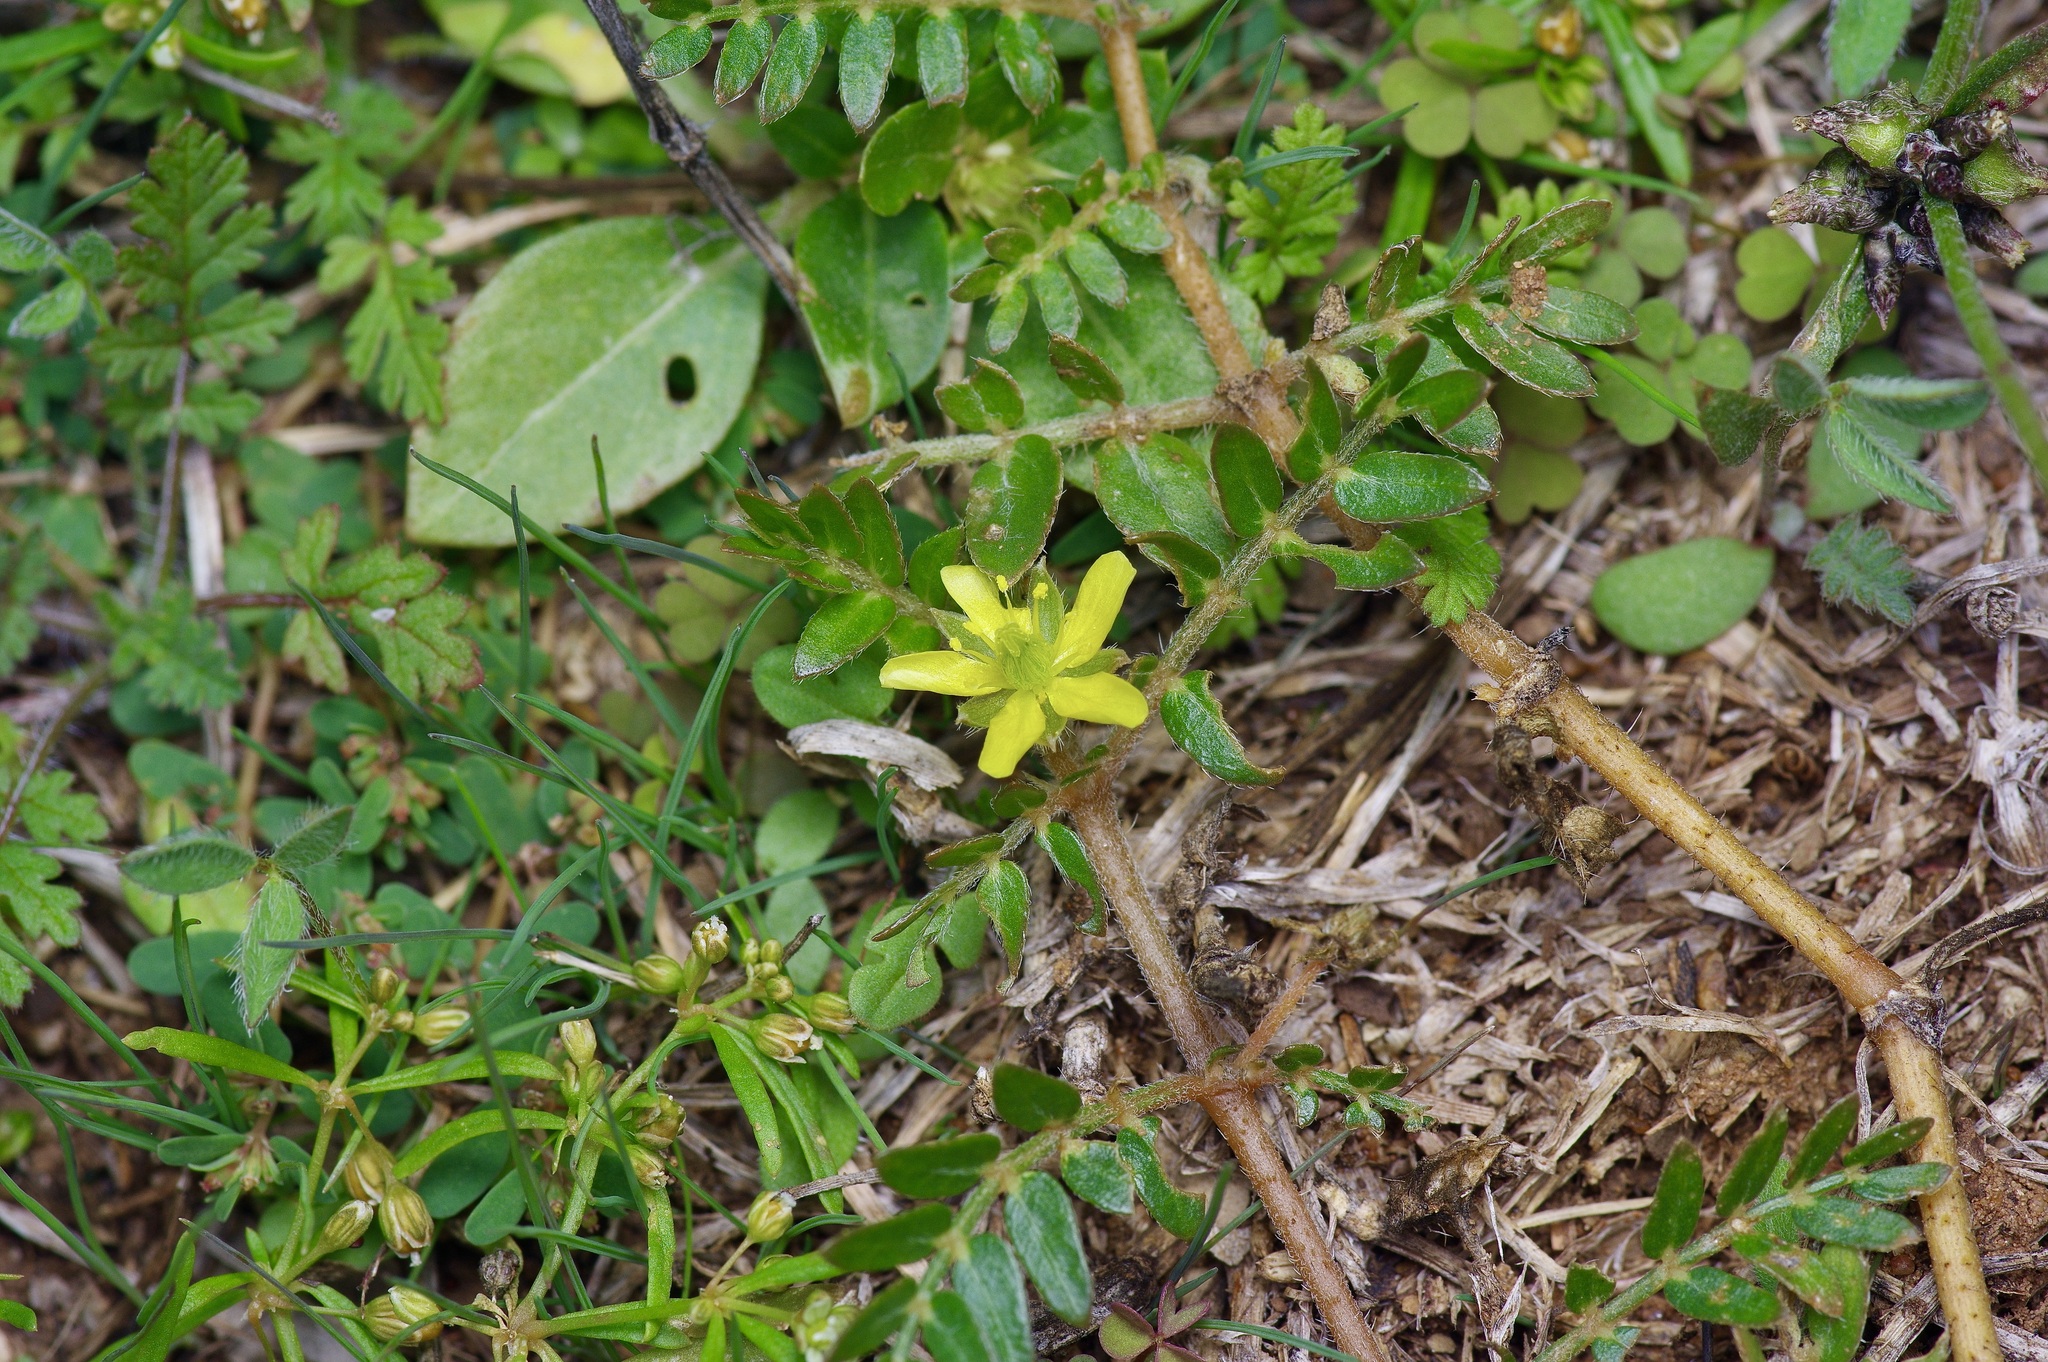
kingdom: Plantae
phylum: Tracheophyta
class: Magnoliopsida
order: Zygophyllales
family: Zygophyllaceae
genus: Tribulus
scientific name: Tribulus terrestris
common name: Puncturevine
